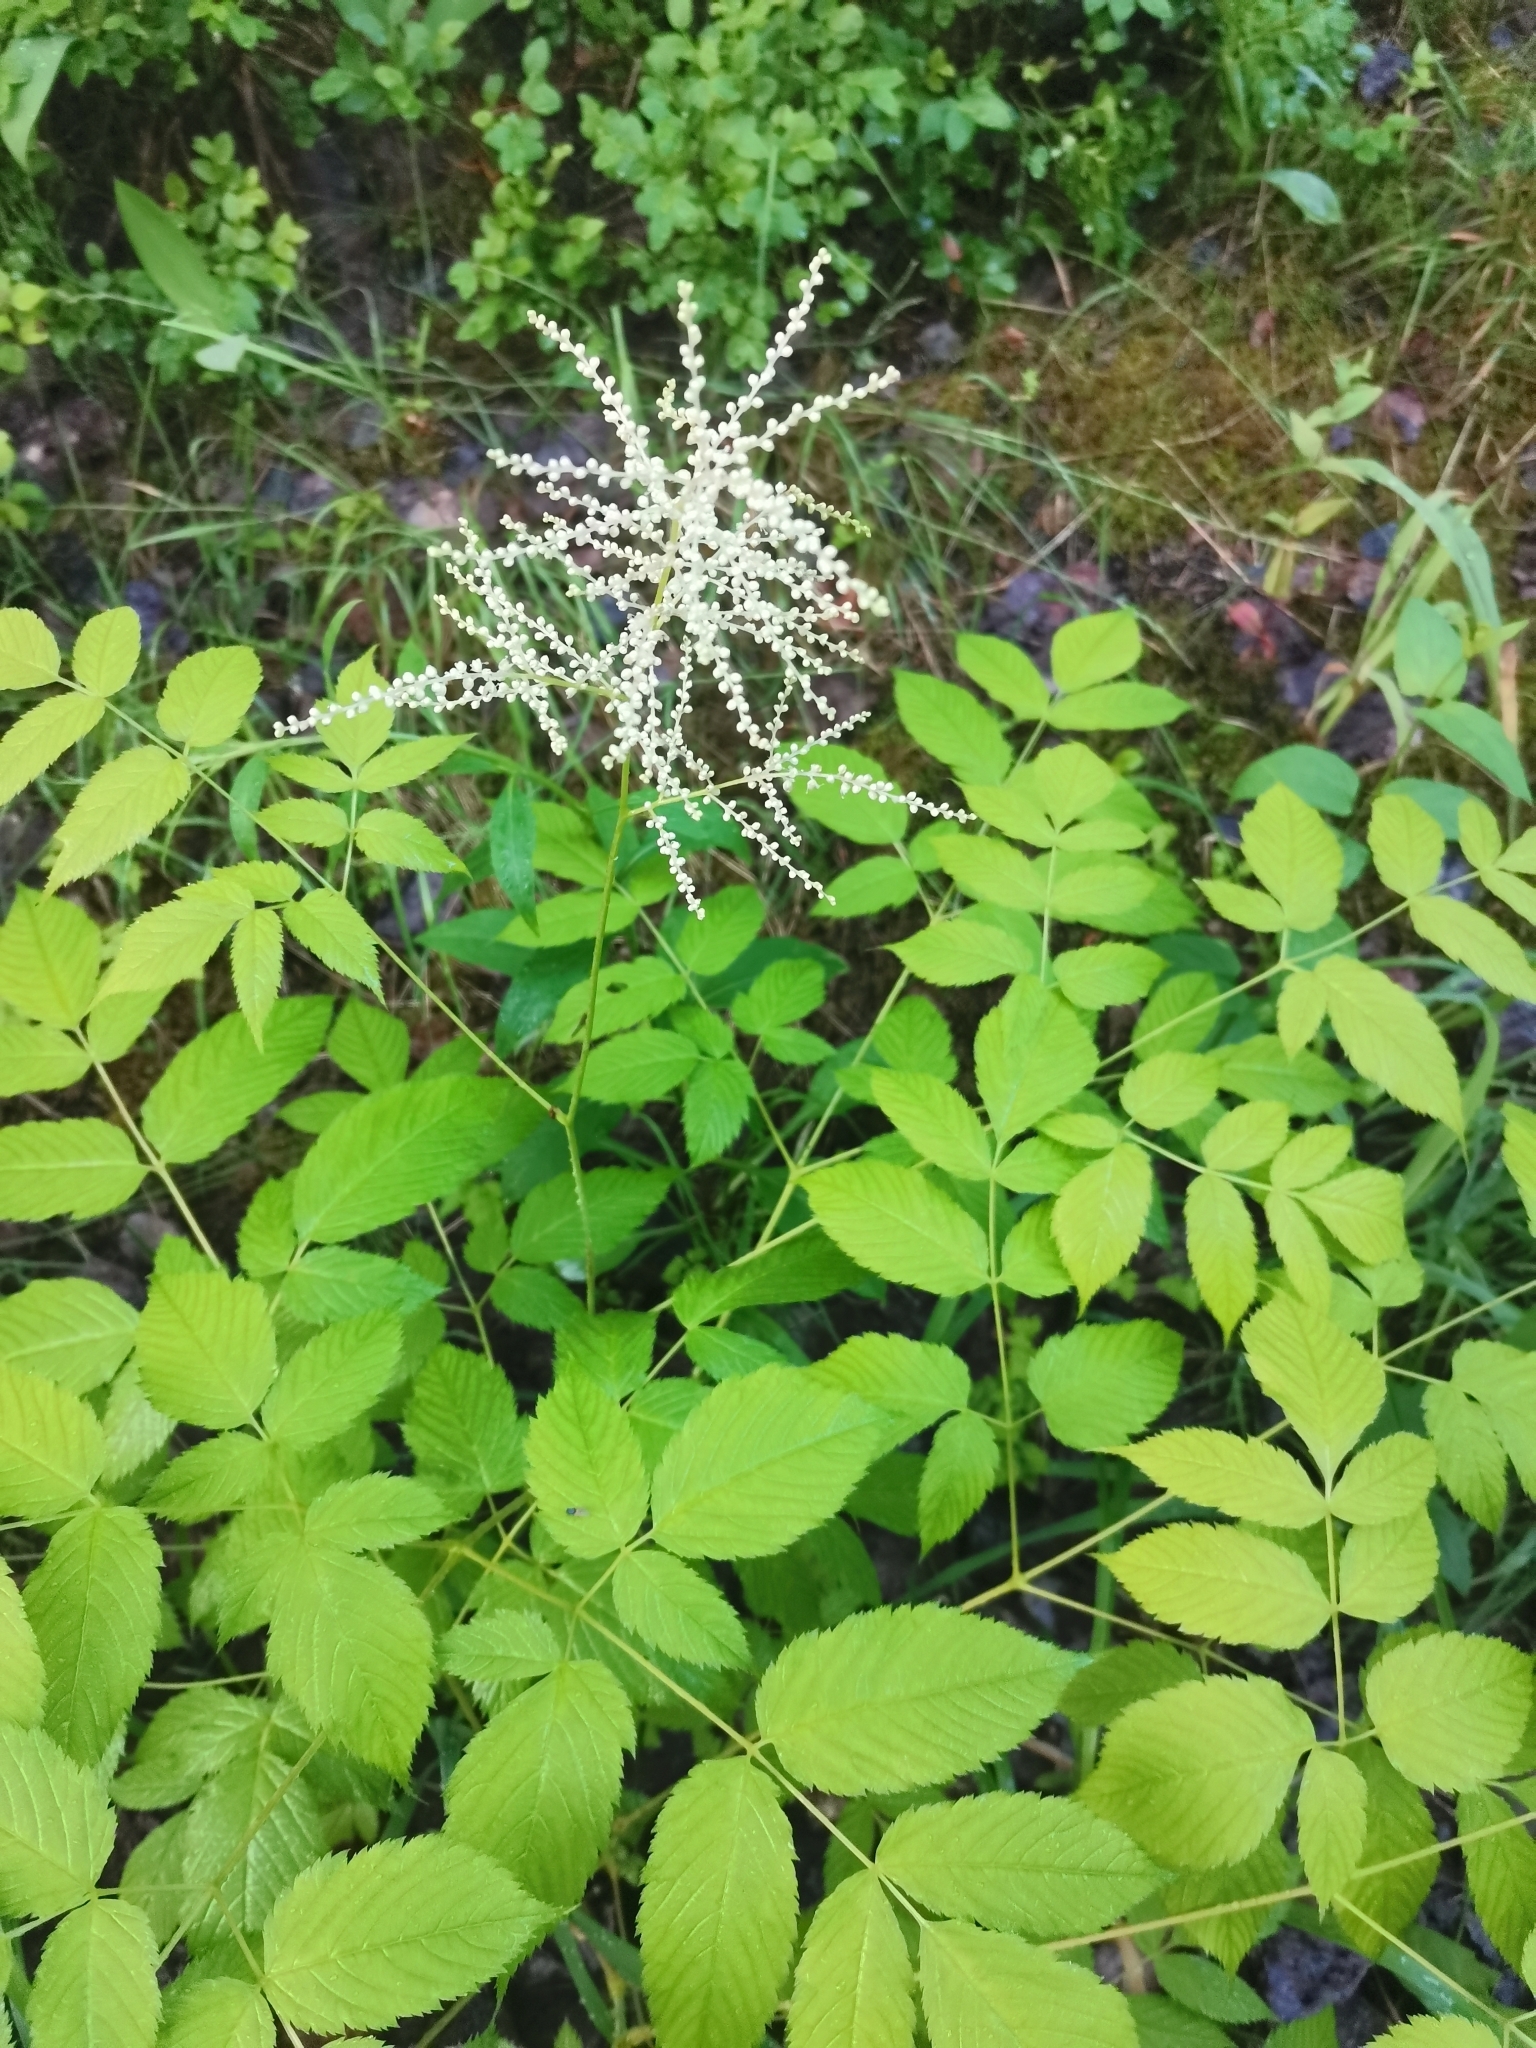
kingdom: Plantae
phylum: Tracheophyta
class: Magnoliopsida
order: Rosales
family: Rosaceae
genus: Aruncus
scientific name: Aruncus dioicus
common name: Buck's-beard
